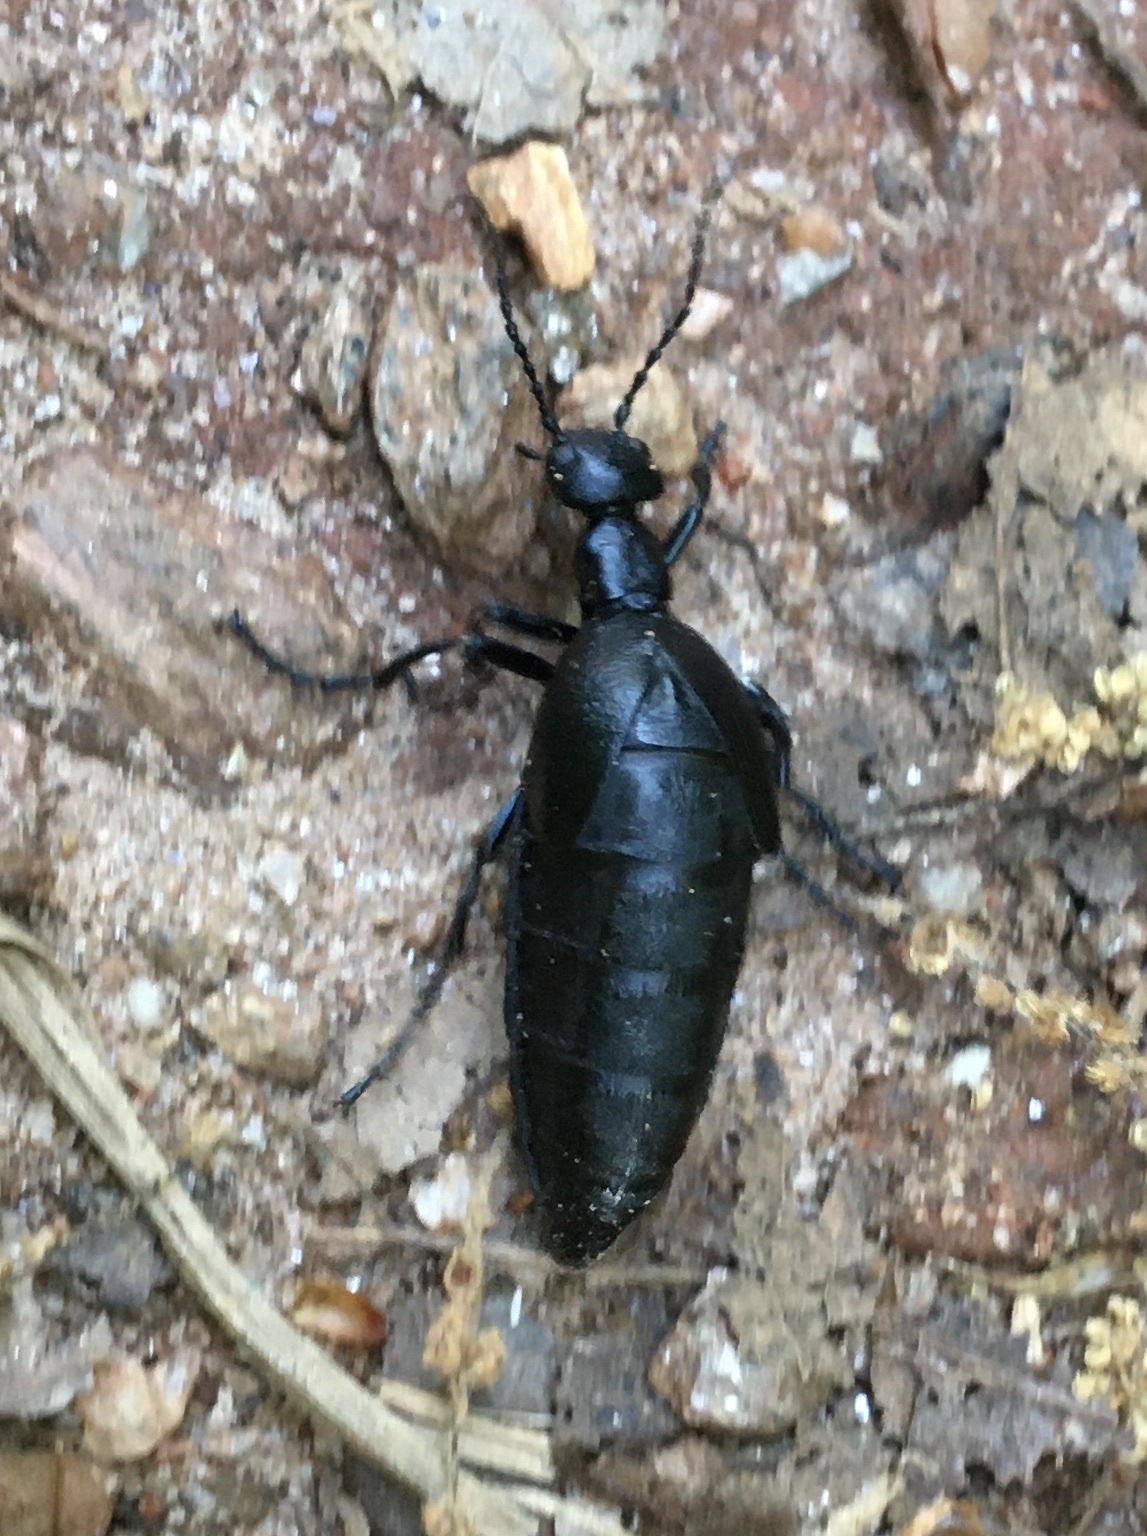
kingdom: Animalia
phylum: Arthropoda
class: Insecta
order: Coleoptera
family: Meloidae
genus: Meloe
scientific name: Meloe americanus
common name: Buttercup oil beetle
